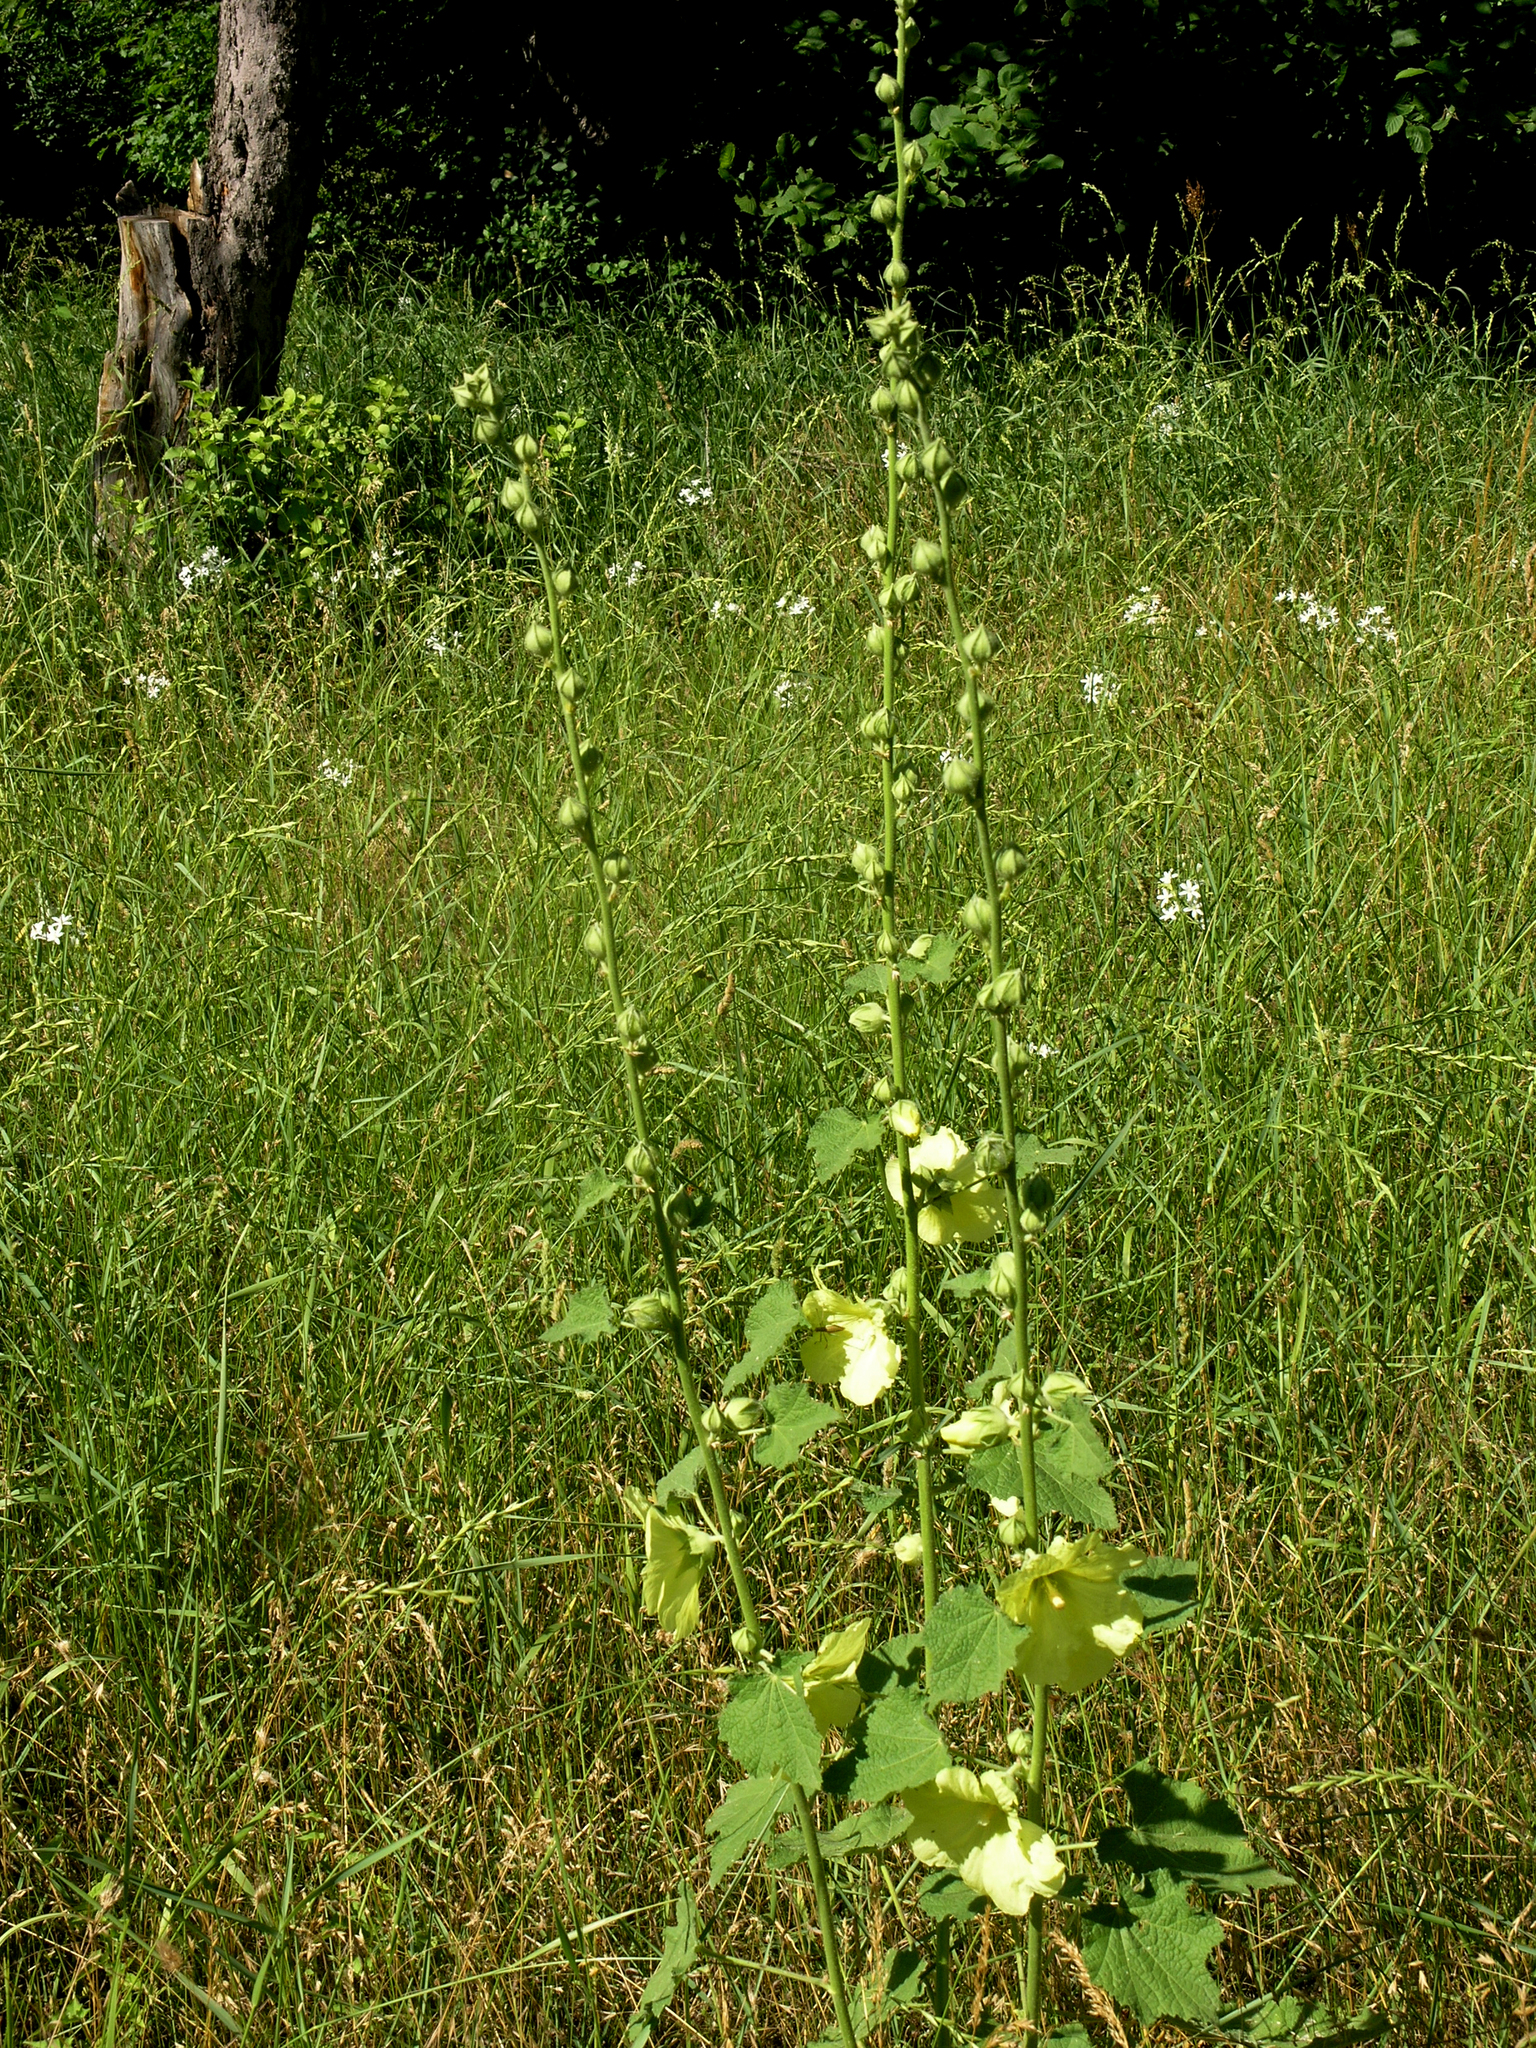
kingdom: Plantae
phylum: Tracheophyta
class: Magnoliopsida
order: Malvales
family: Malvaceae
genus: Alcea
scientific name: Alcea rugosa
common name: Russian hollyhock
